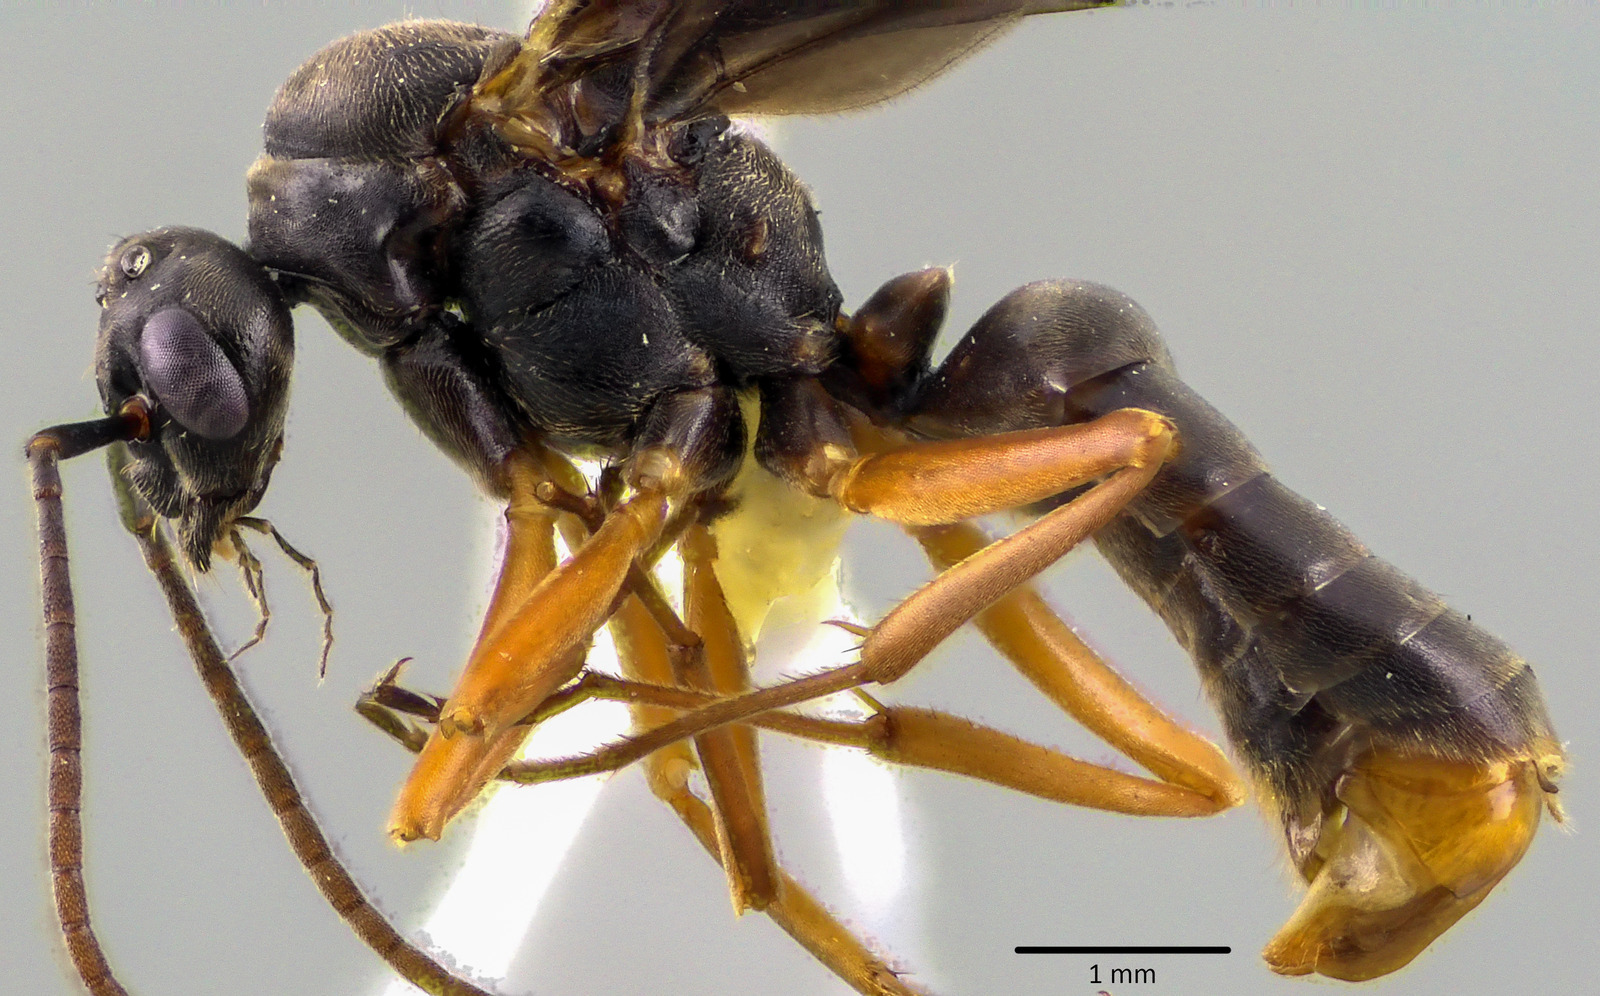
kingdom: Animalia
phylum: Arthropoda
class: Insecta
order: Hymenoptera
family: Formicidae
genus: Formica
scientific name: Formica subintegra
